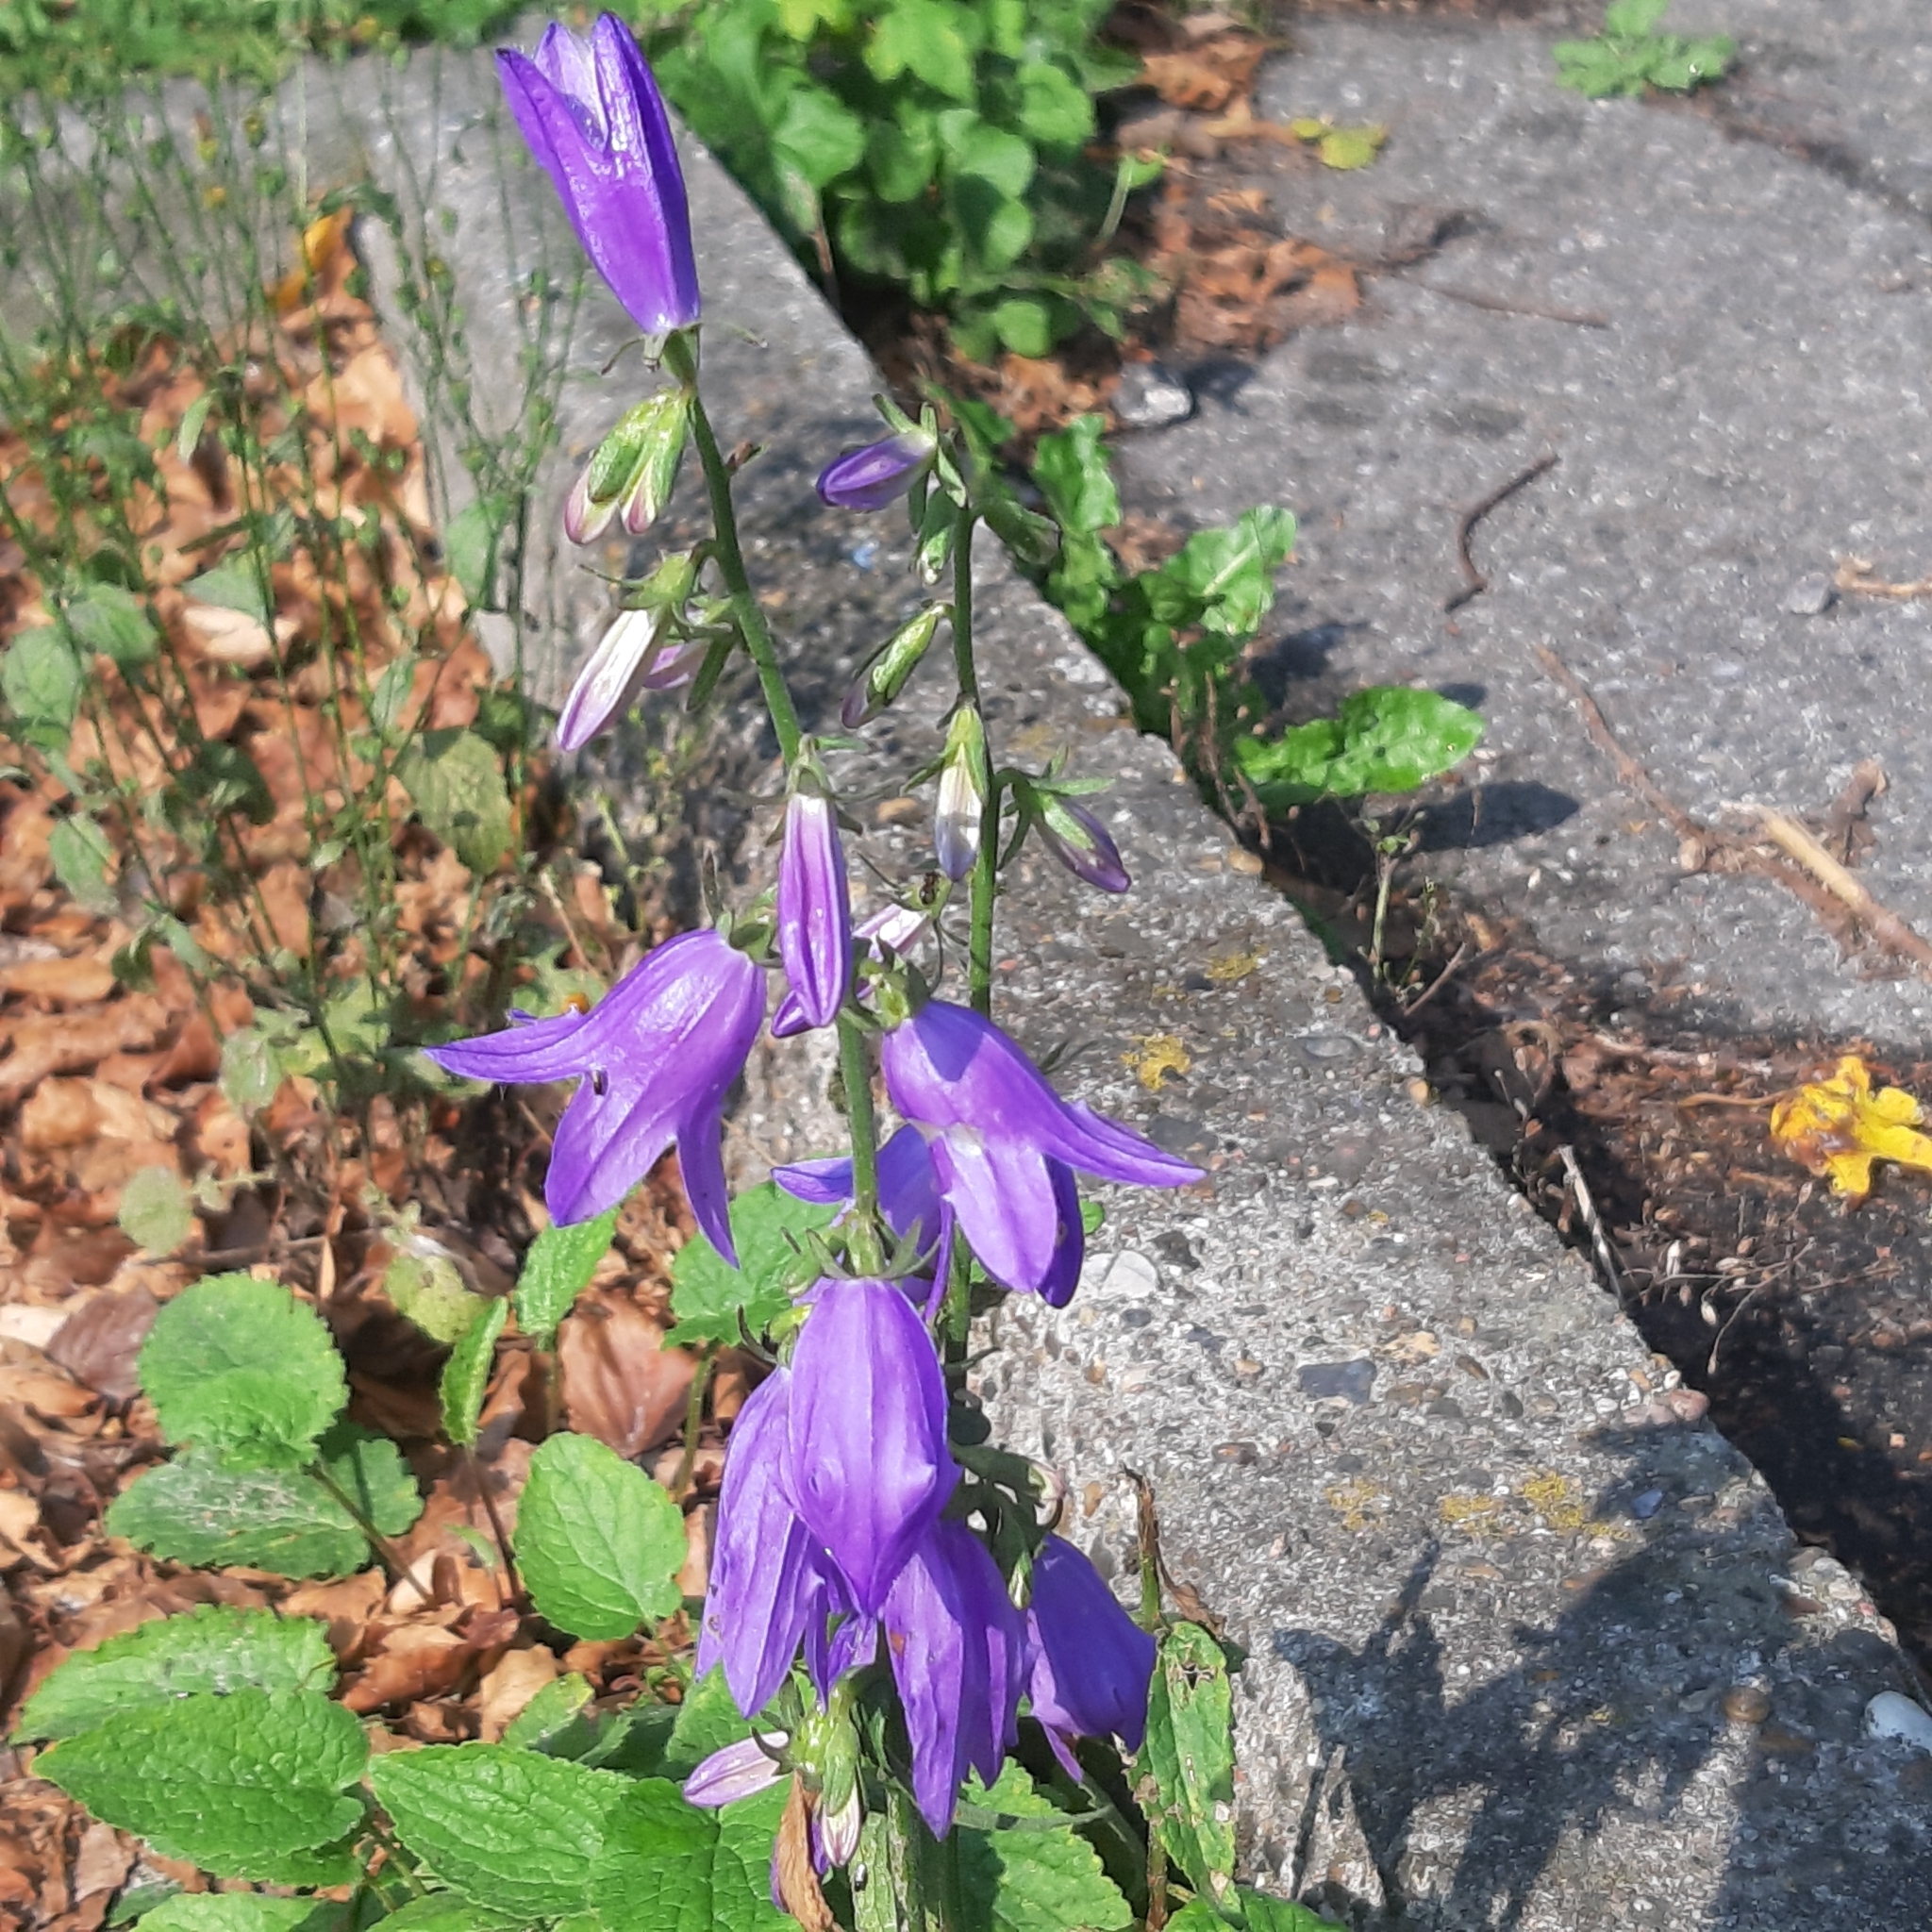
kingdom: Plantae
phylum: Tracheophyta
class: Magnoliopsida
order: Asterales
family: Campanulaceae
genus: Campanula
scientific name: Campanula rotundifolia
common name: Harebell
